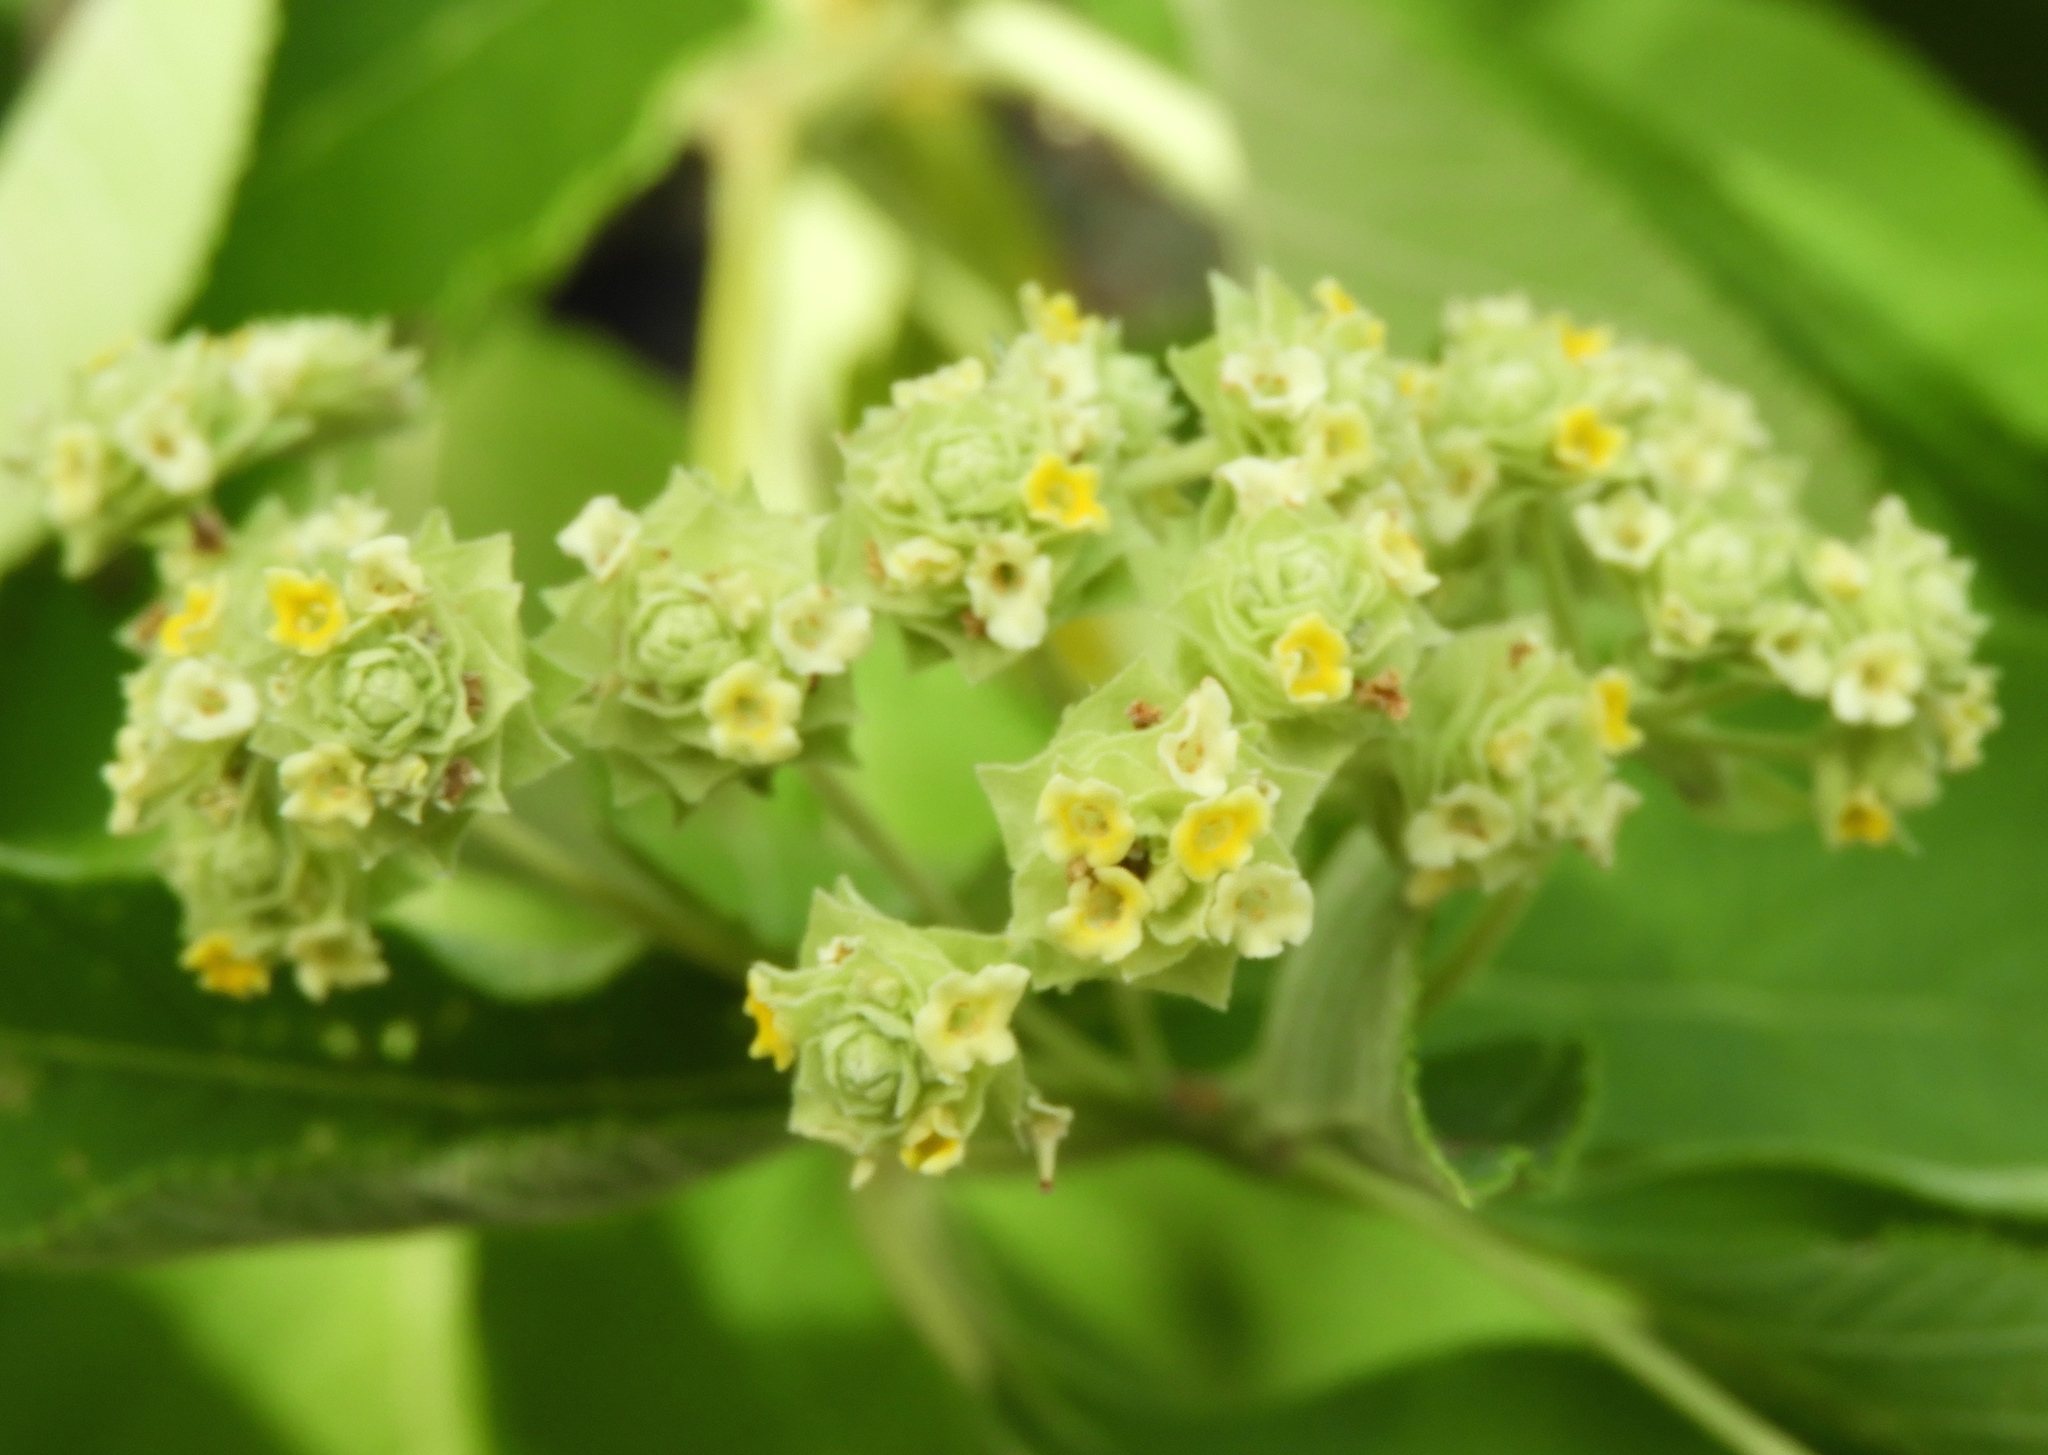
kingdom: Plantae
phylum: Tracheophyta
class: Magnoliopsida
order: Lamiales
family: Verbenaceae
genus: Lippia
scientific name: Lippia umbellata
